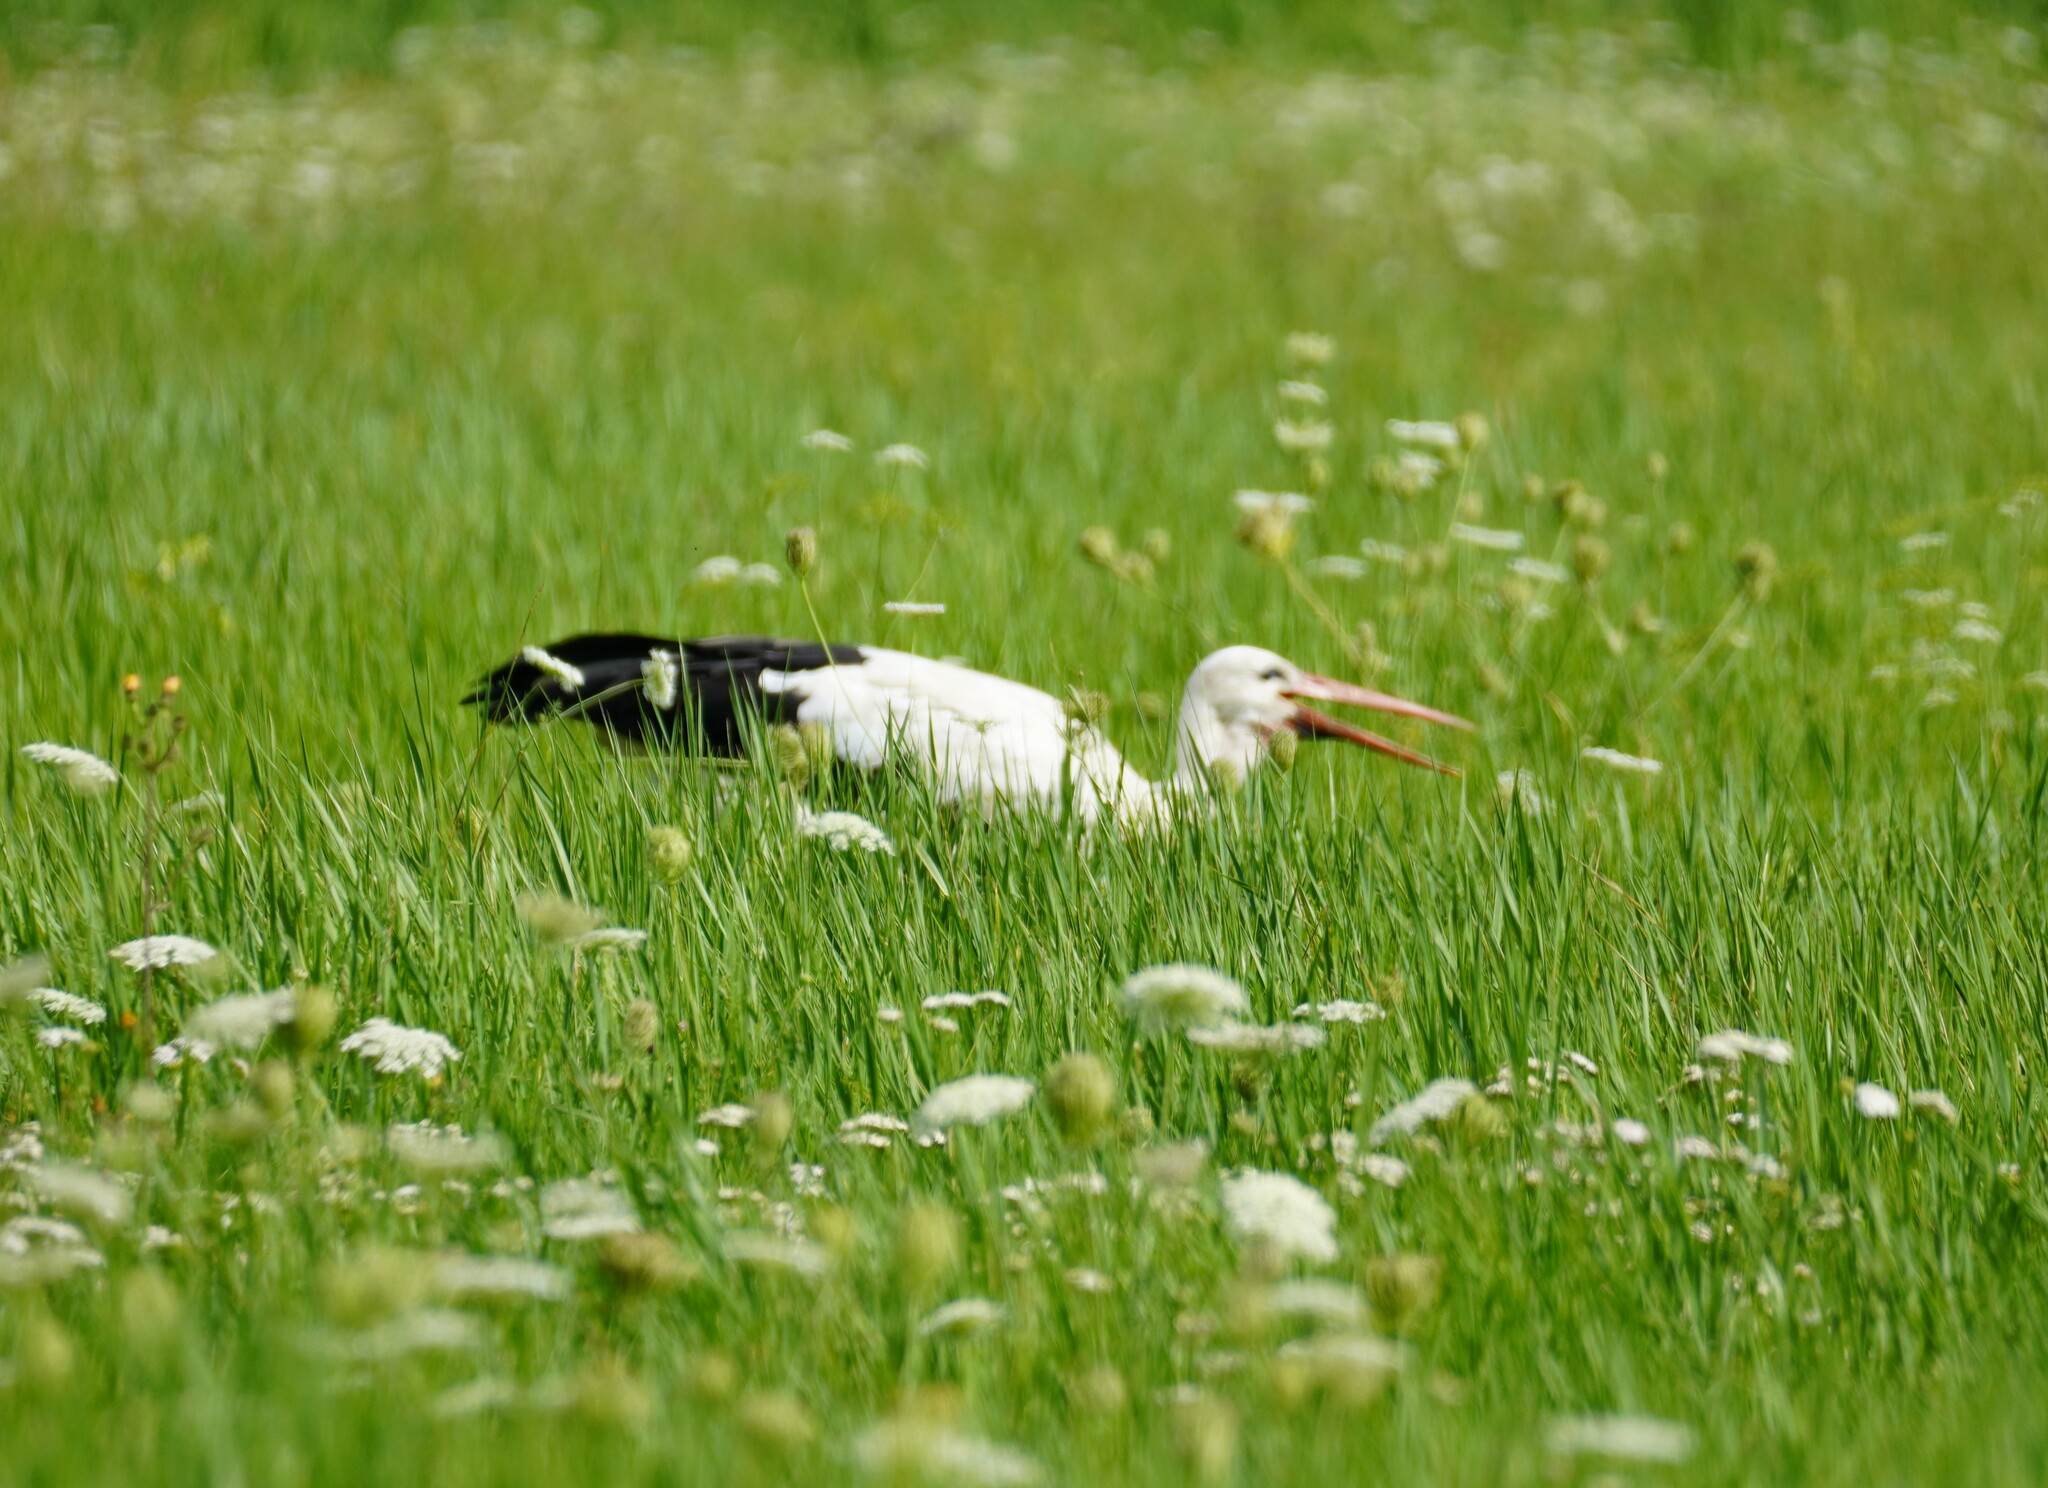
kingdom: Animalia
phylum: Chordata
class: Aves
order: Ciconiiformes
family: Ciconiidae
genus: Ciconia
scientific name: Ciconia ciconia
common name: White stork
